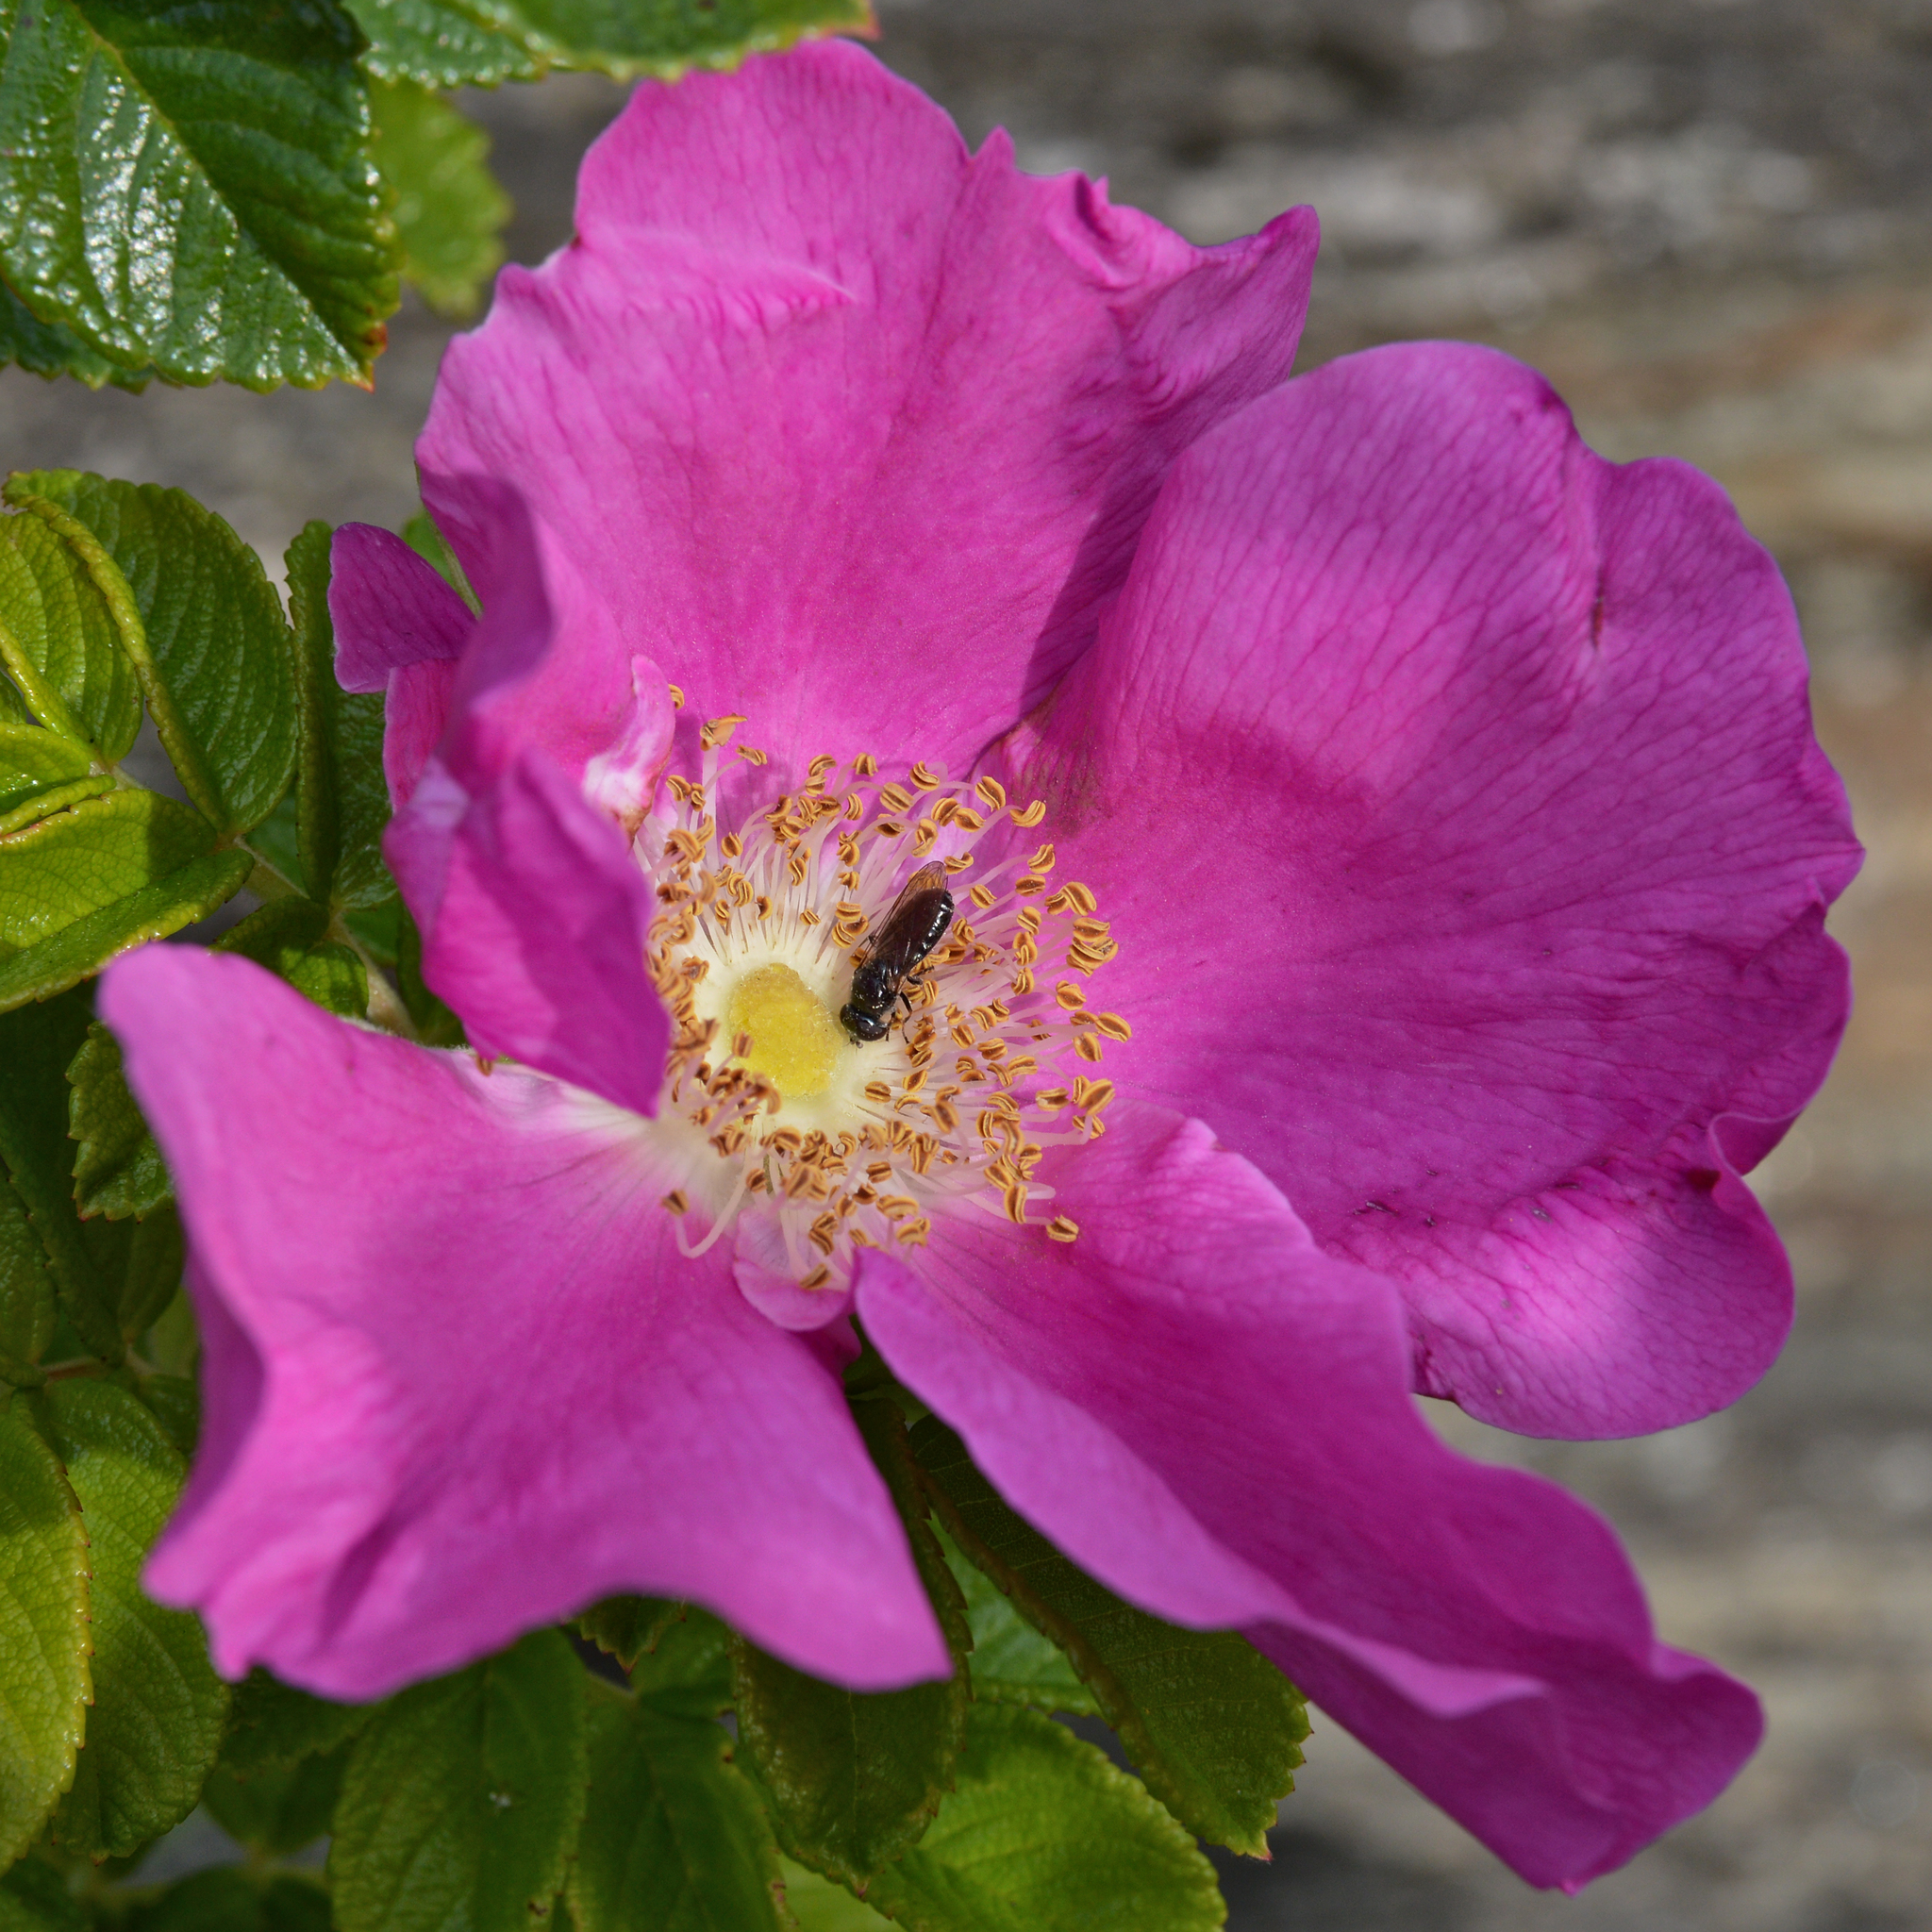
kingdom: Plantae
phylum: Tracheophyta
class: Magnoliopsida
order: Rosales
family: Rosaceae
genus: Rosa
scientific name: Rosa rugosa
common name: Japanese rose
